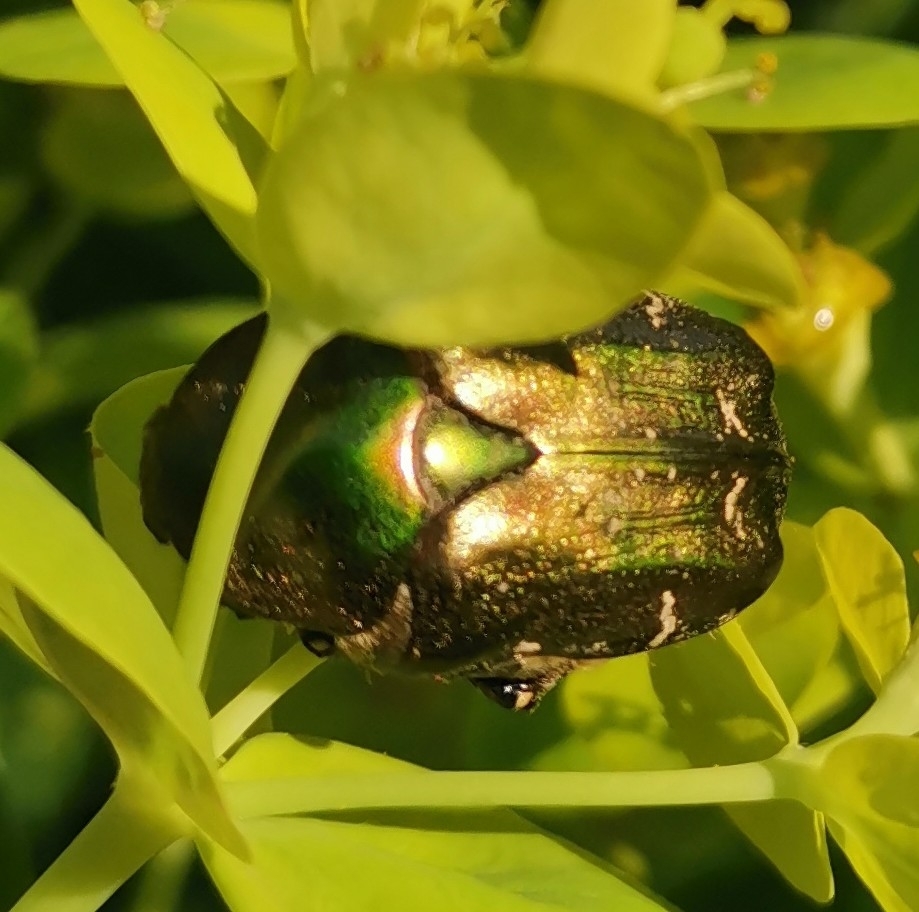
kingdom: Animalia
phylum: Arthropoda
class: Insecta
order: Coleoptera
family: Scarabaeidae
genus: Protaetia
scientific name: Protaetia cuprea
